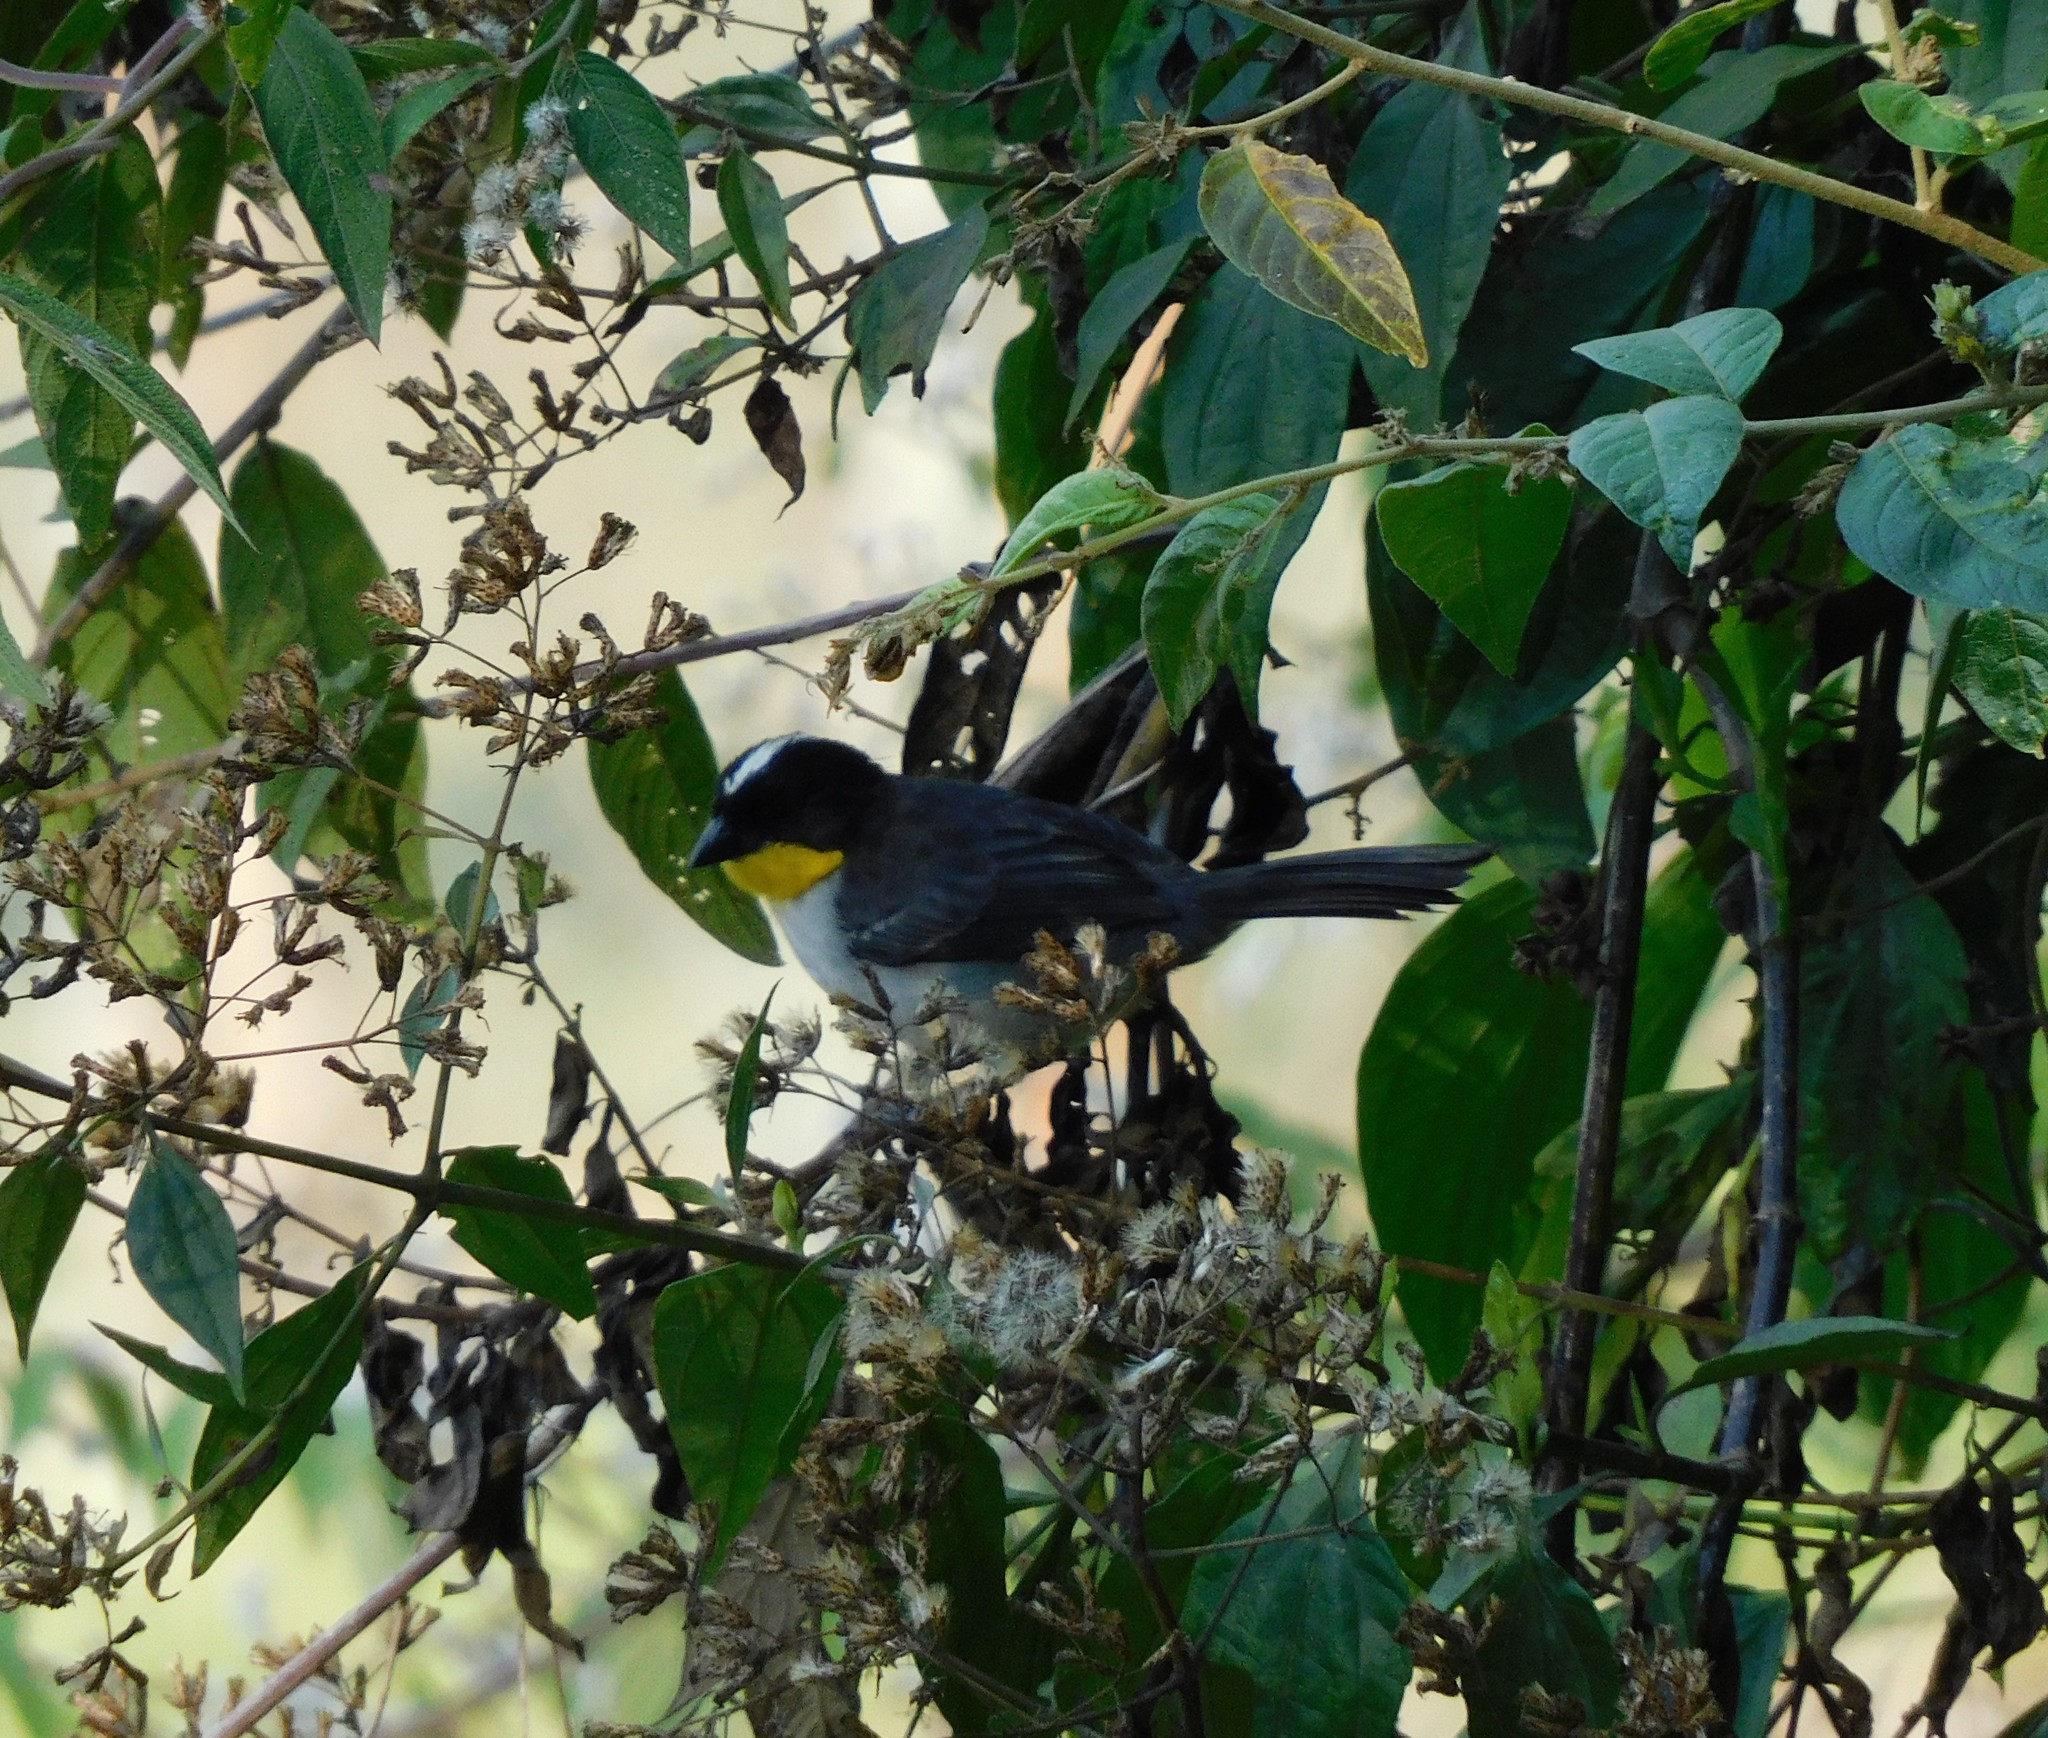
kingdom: Animalia
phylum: Chordata
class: Aves
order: Passeriformes
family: Passerellidae
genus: Atlapetes
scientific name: Atlapetes albinucha
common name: White-naped brush-finch
